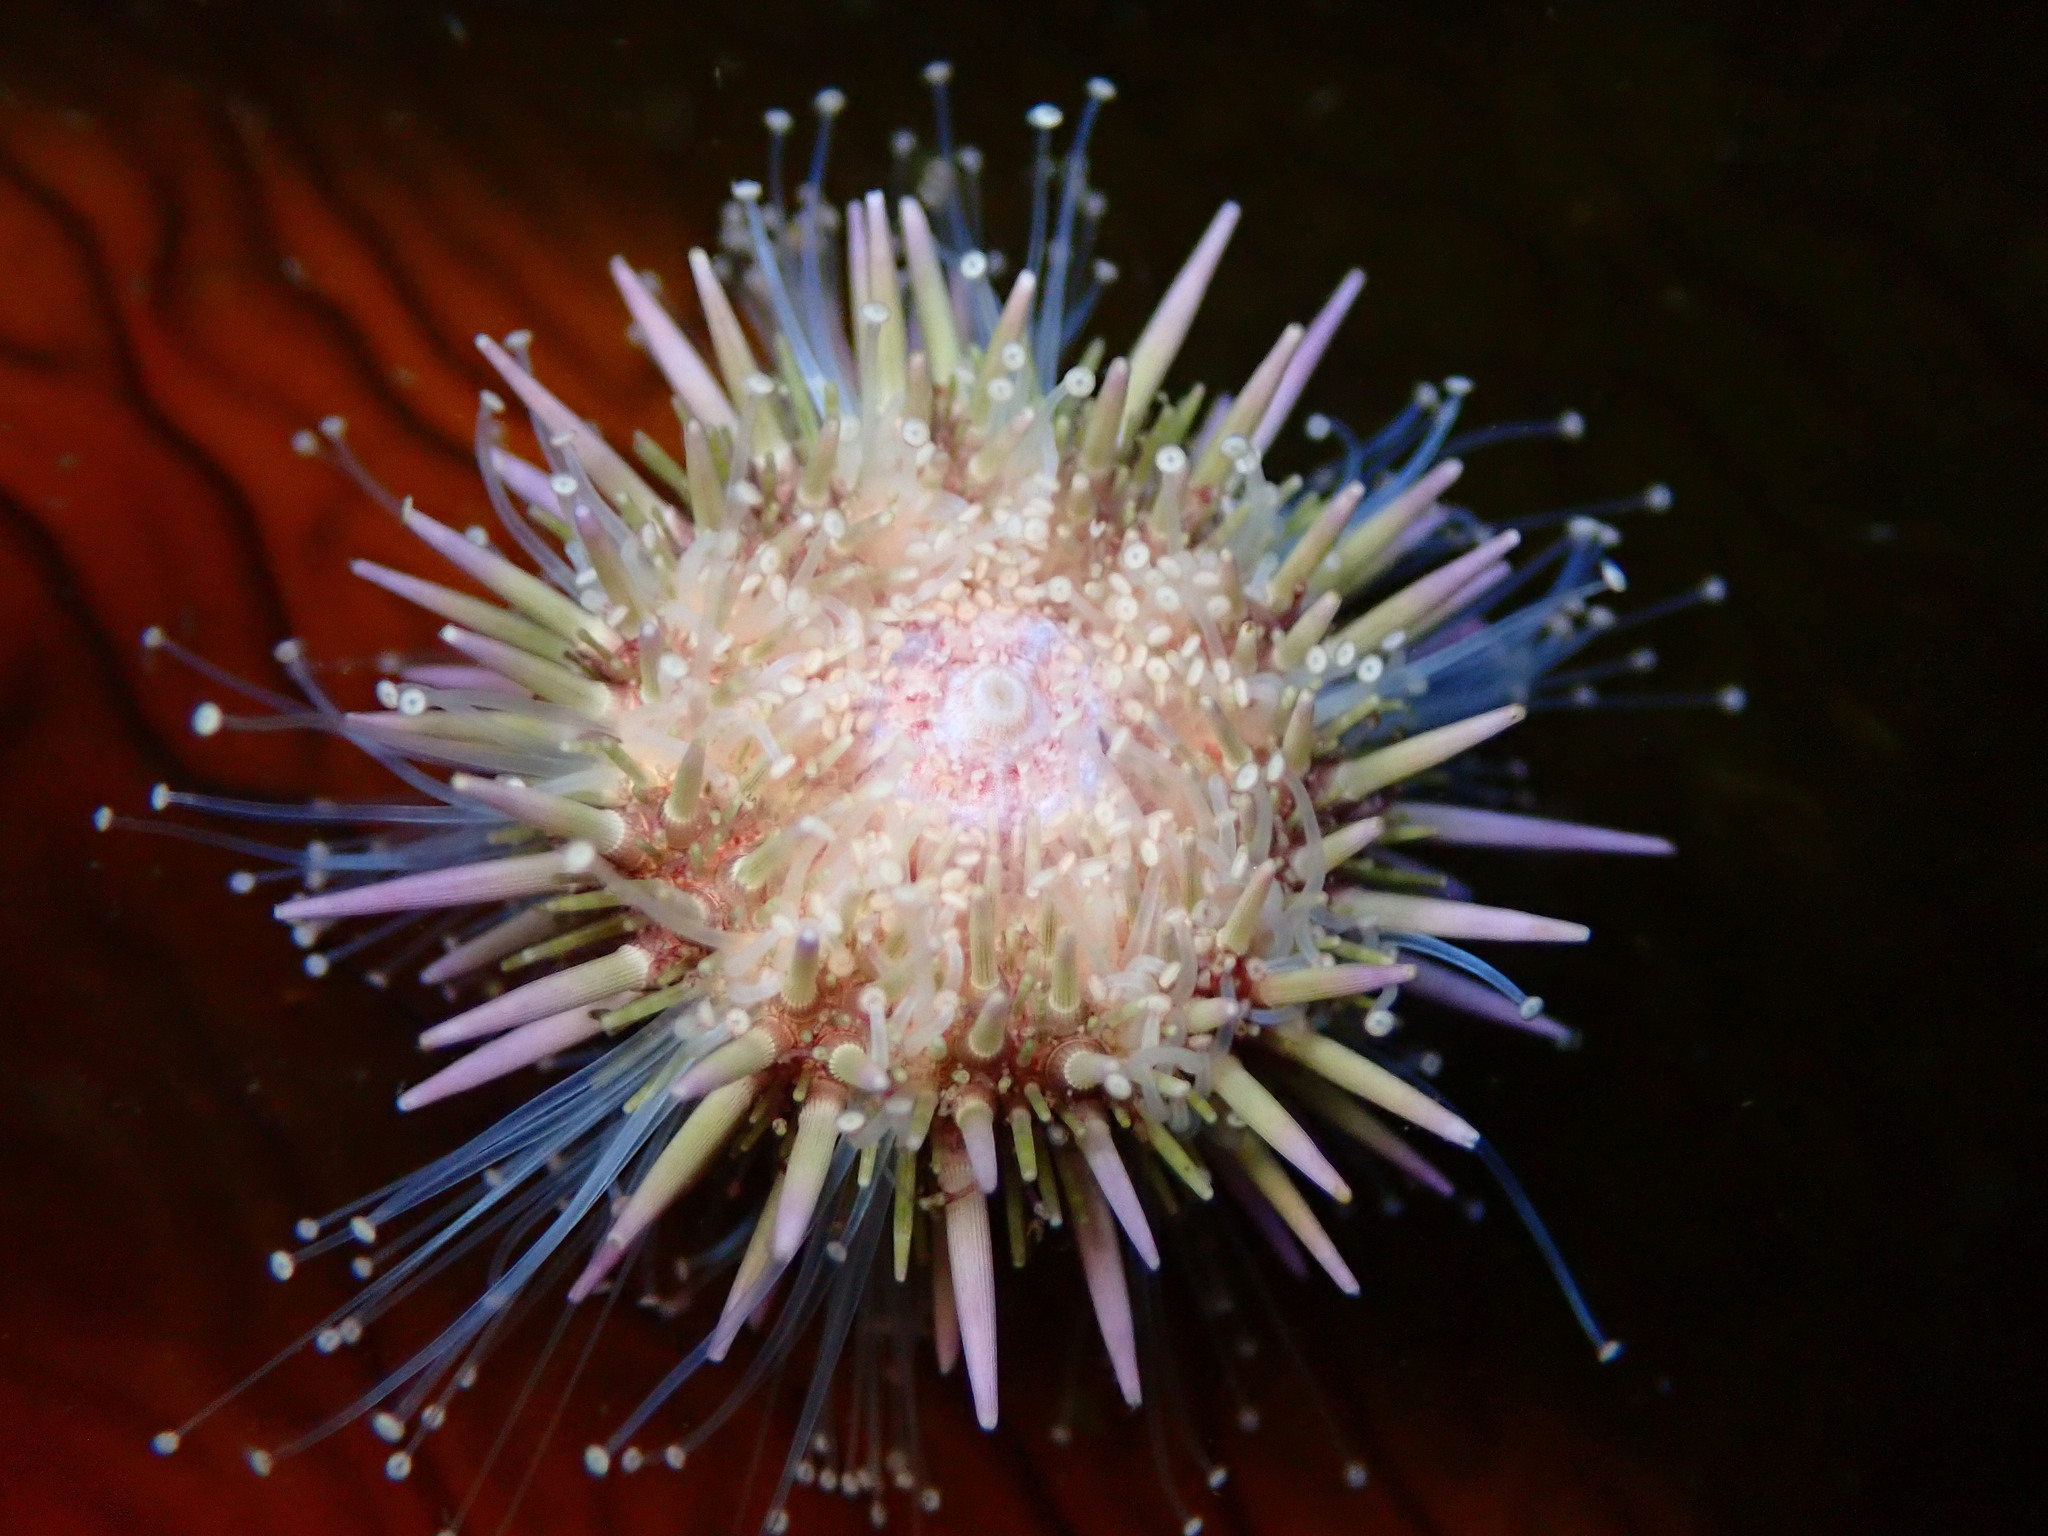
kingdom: Animalia
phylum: Echinodermata
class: Echinoidea
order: Camarodonta
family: Strongylocentrotidae
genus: Strongylocentrotus
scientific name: Strongylocentrotus purpuratus
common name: Purple sea urchin
